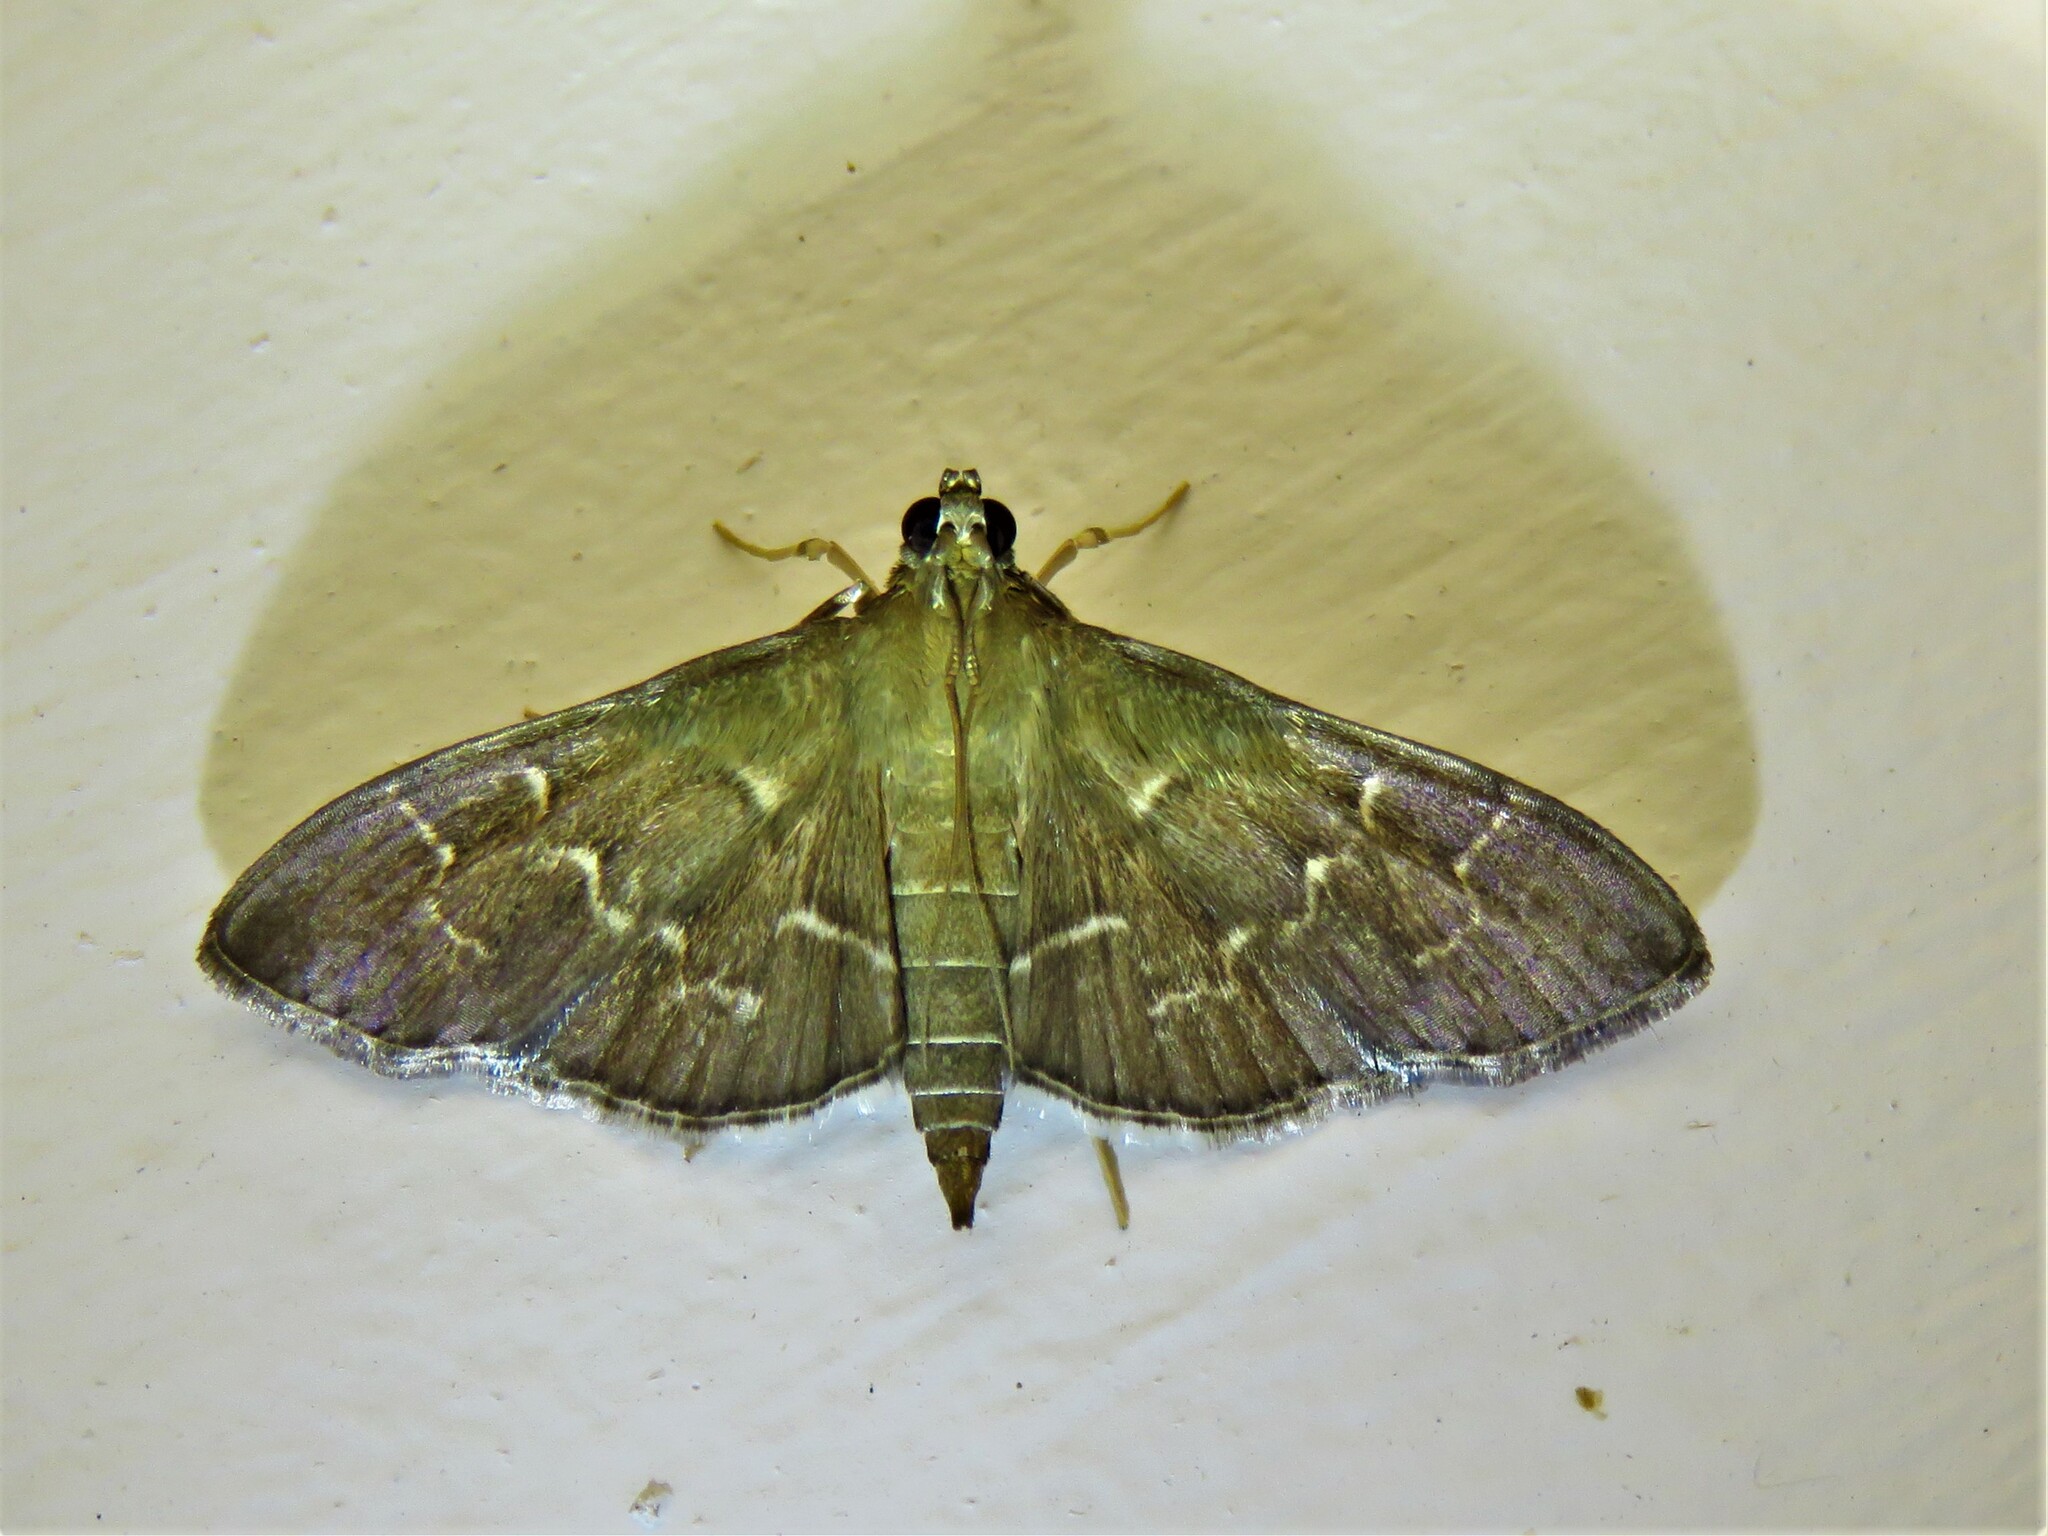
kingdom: Animalia
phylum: Arthropoda
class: Insecta
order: Lepidoptera
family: Crambidae
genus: Pilocrocis
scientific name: Pilocrocis ramentalis
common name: Scraped pilocrocis
